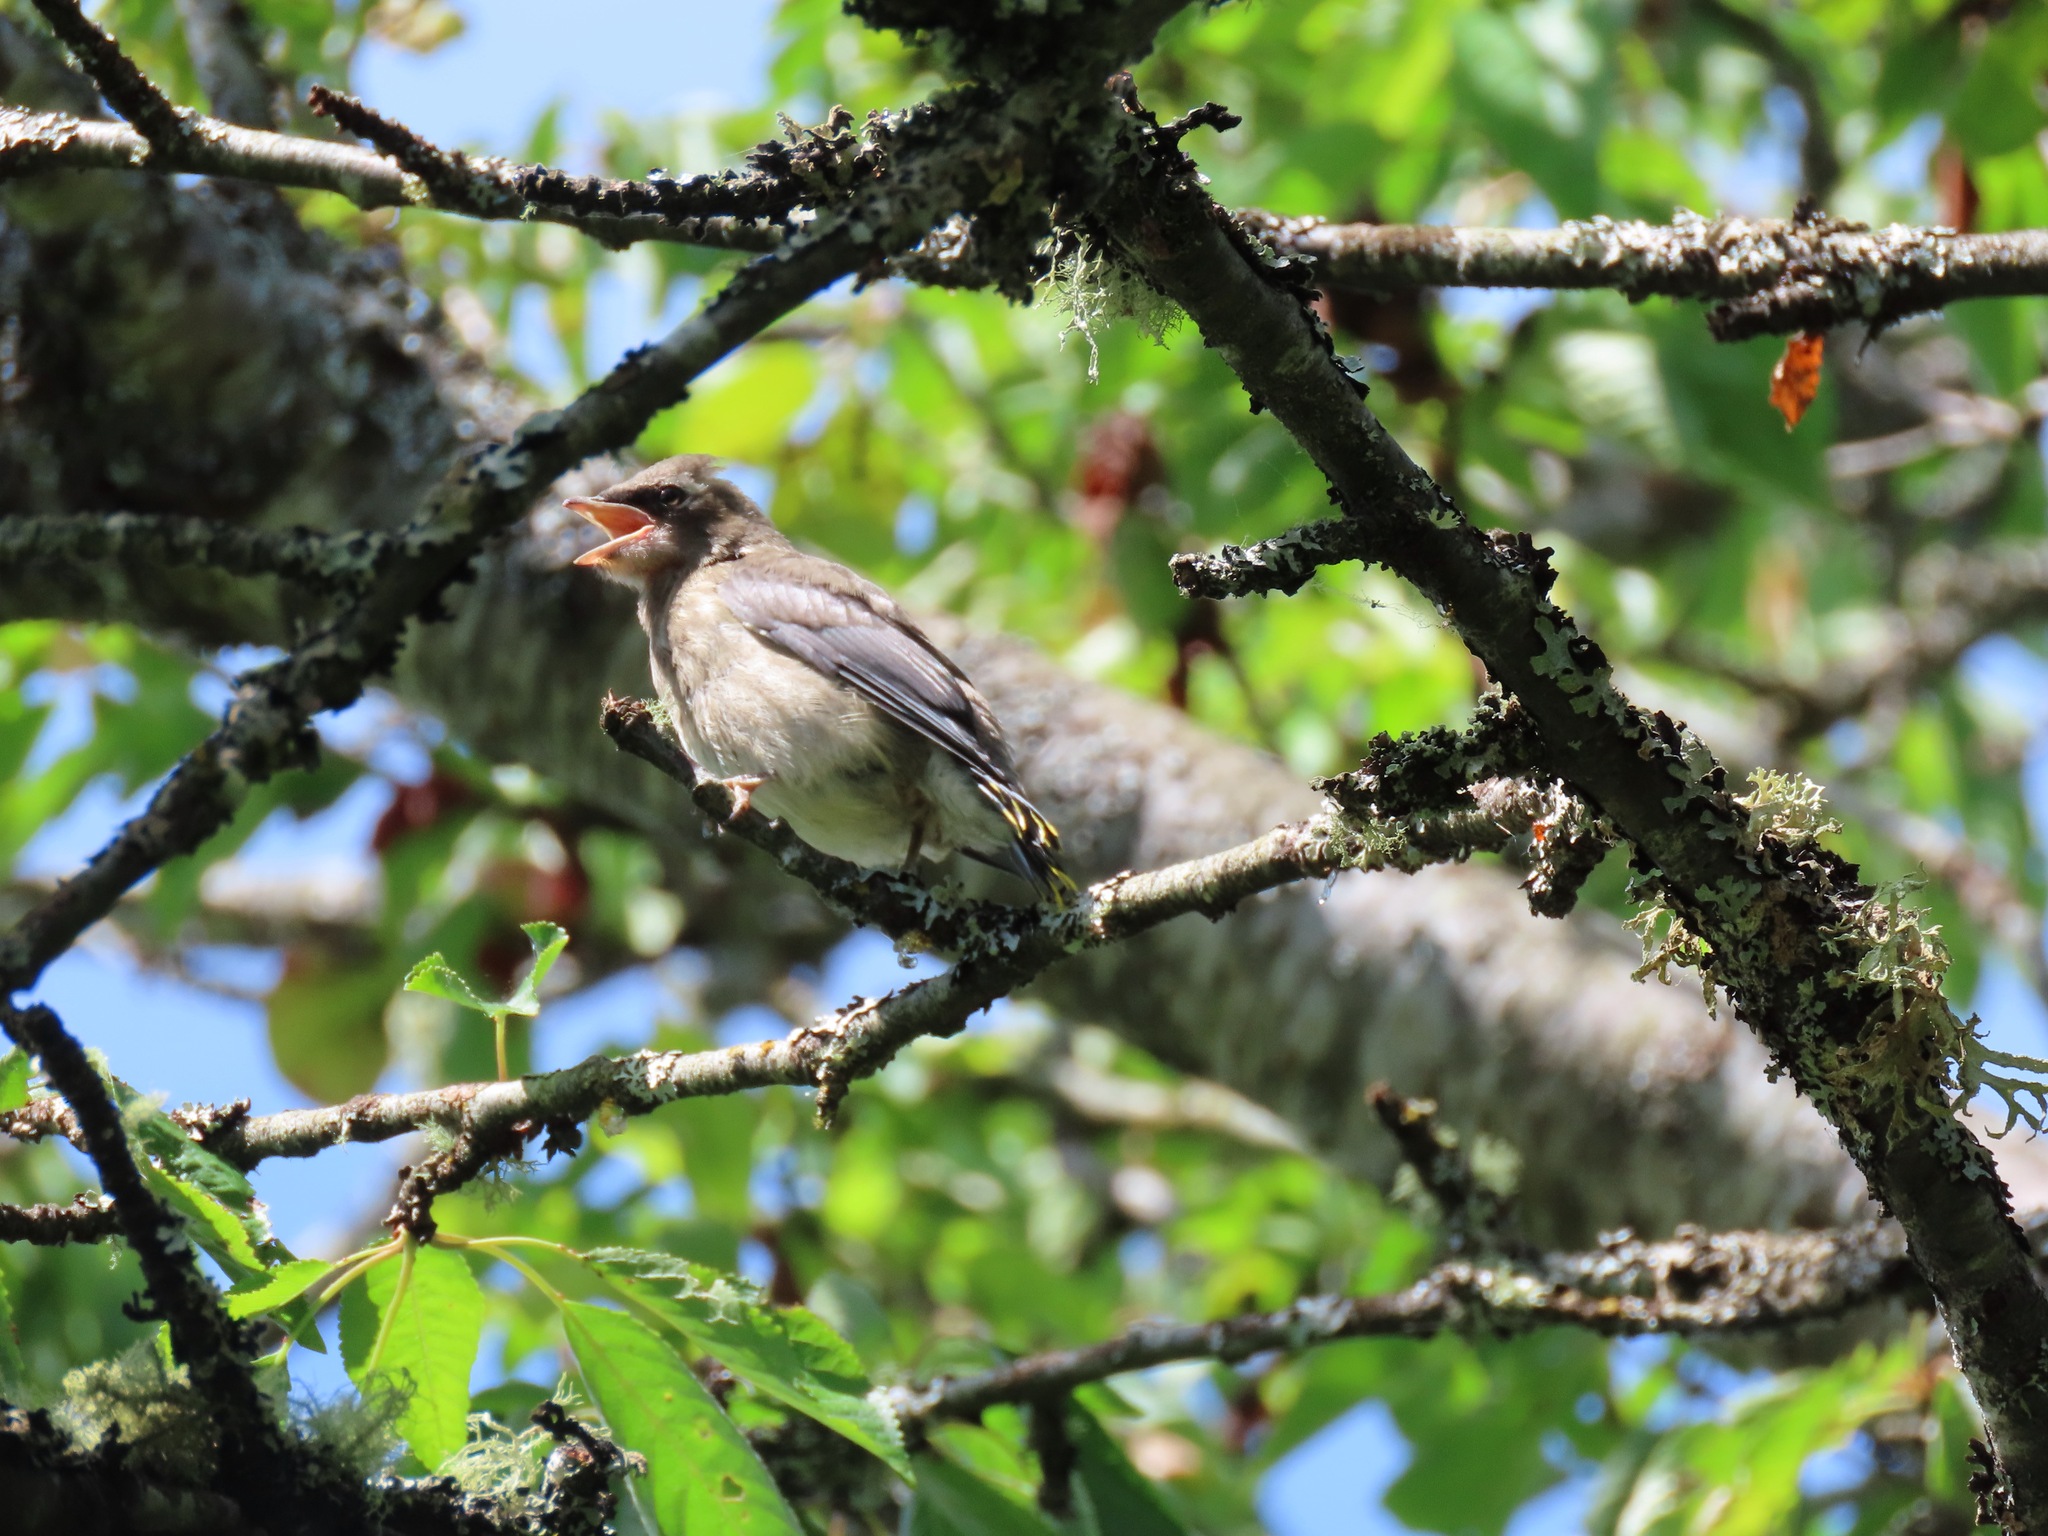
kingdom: Animalia
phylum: Chordata
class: Aves
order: Passeriformes
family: Bombycillidae
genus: Bombycilla
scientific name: Bombycilla cedrorum
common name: Cedar waxwing
